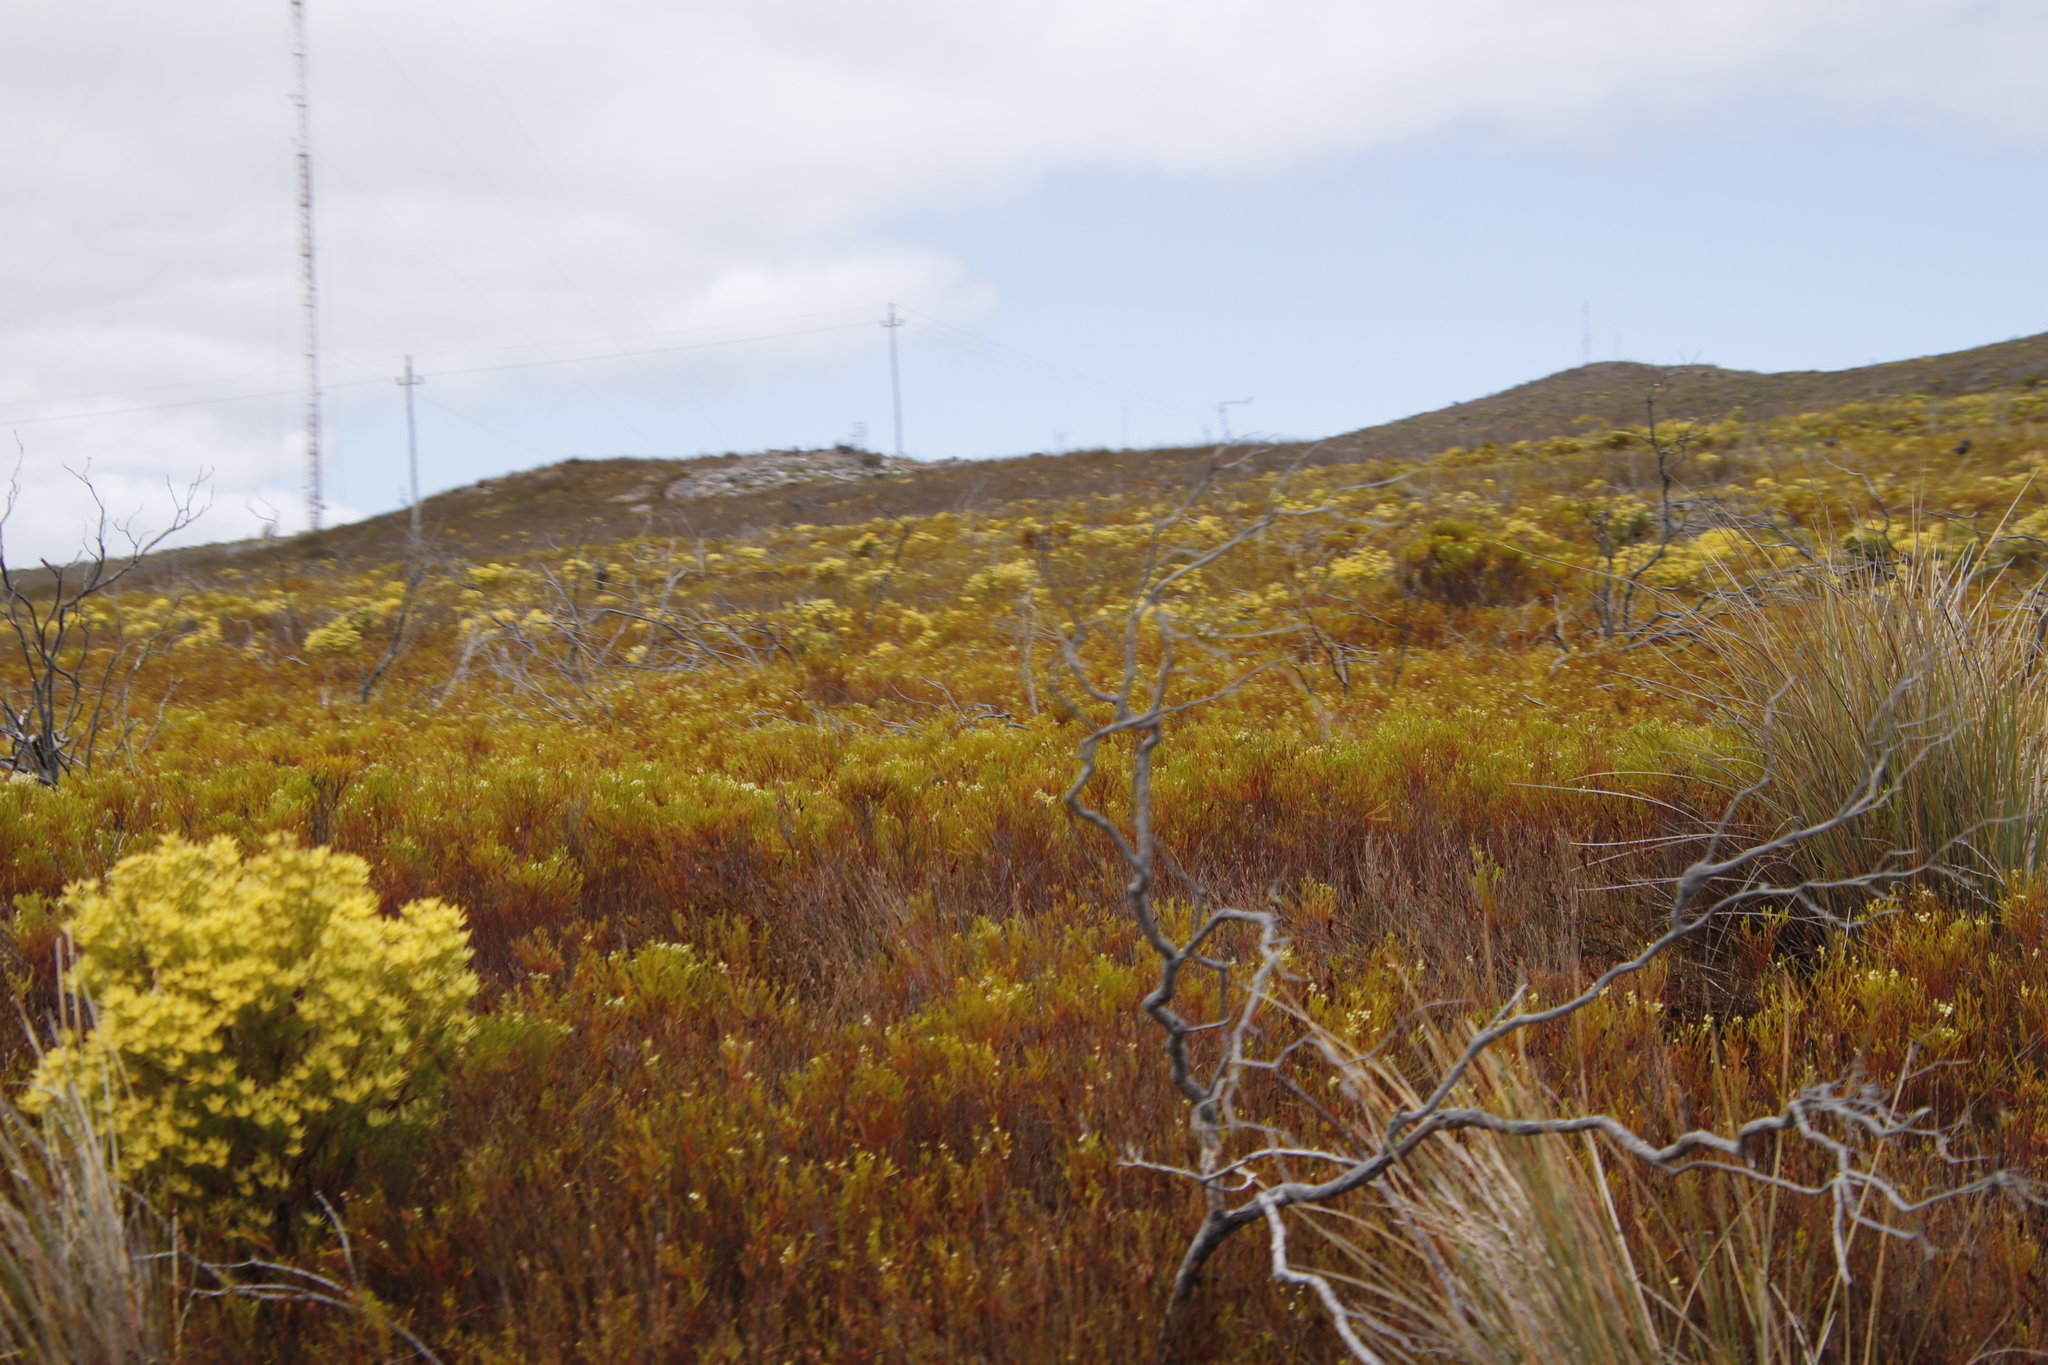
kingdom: Plantae
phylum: Tracheophyta
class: Magnoliopsida
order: Bruniales
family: Bruniaceae
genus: Berzelia
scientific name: Berzelia lanuginosa
